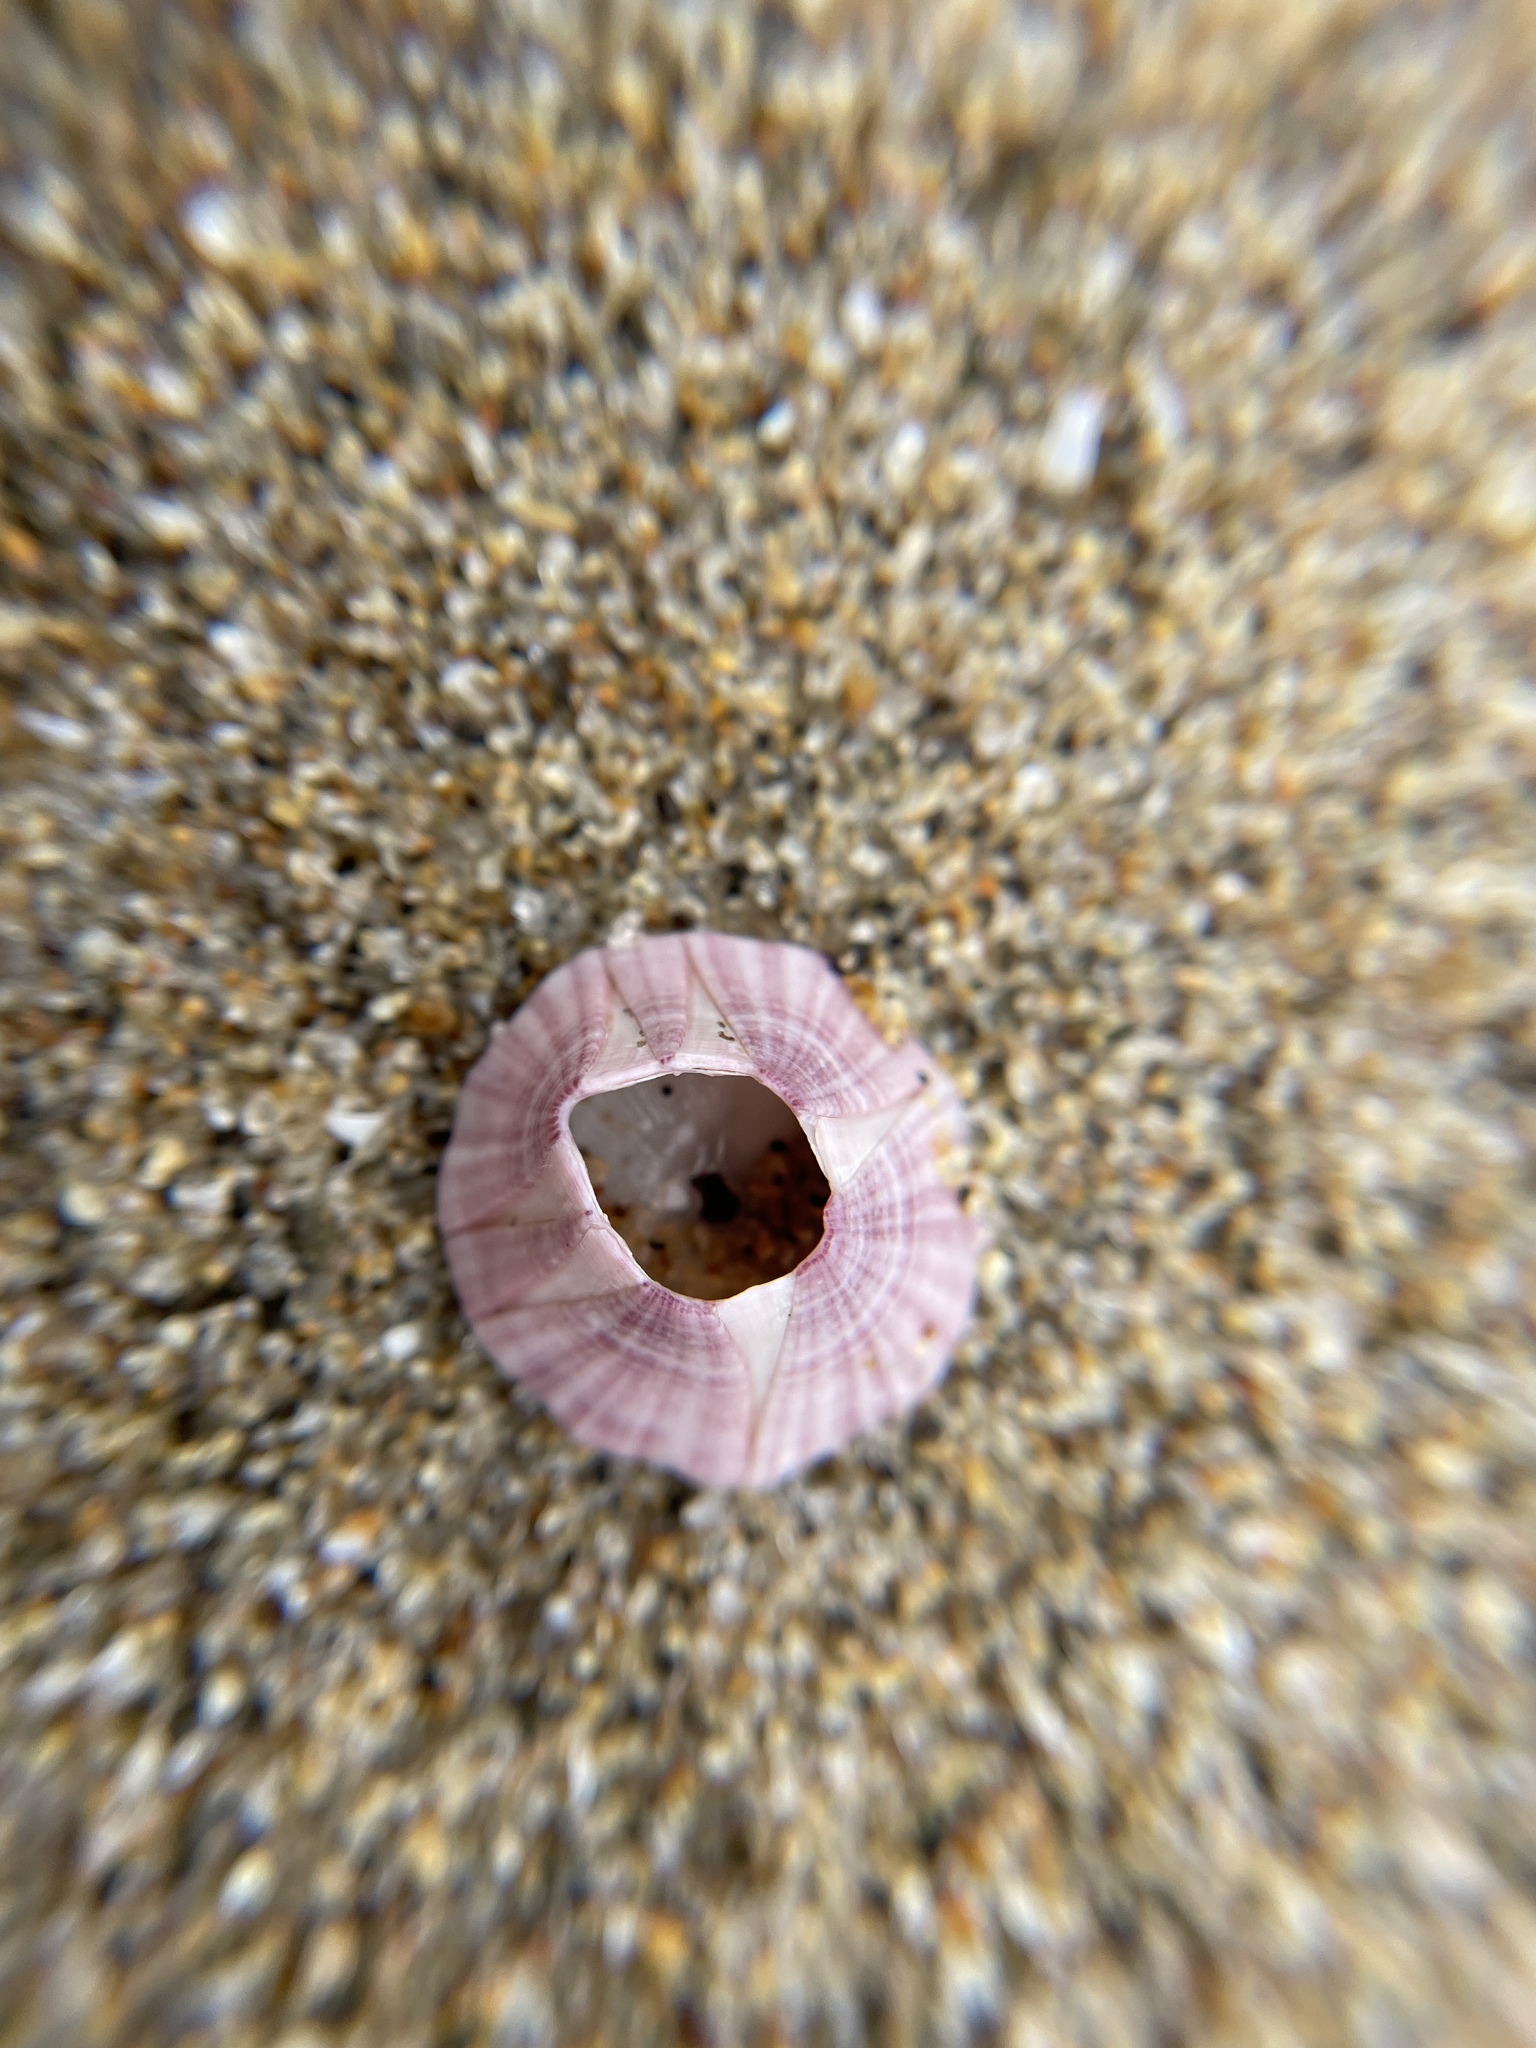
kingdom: Animalia
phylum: Arthropoda
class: Maxillopoda
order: Sessilia
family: Balanidae
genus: Paraconcavus
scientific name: Paraconcavus pacificus
